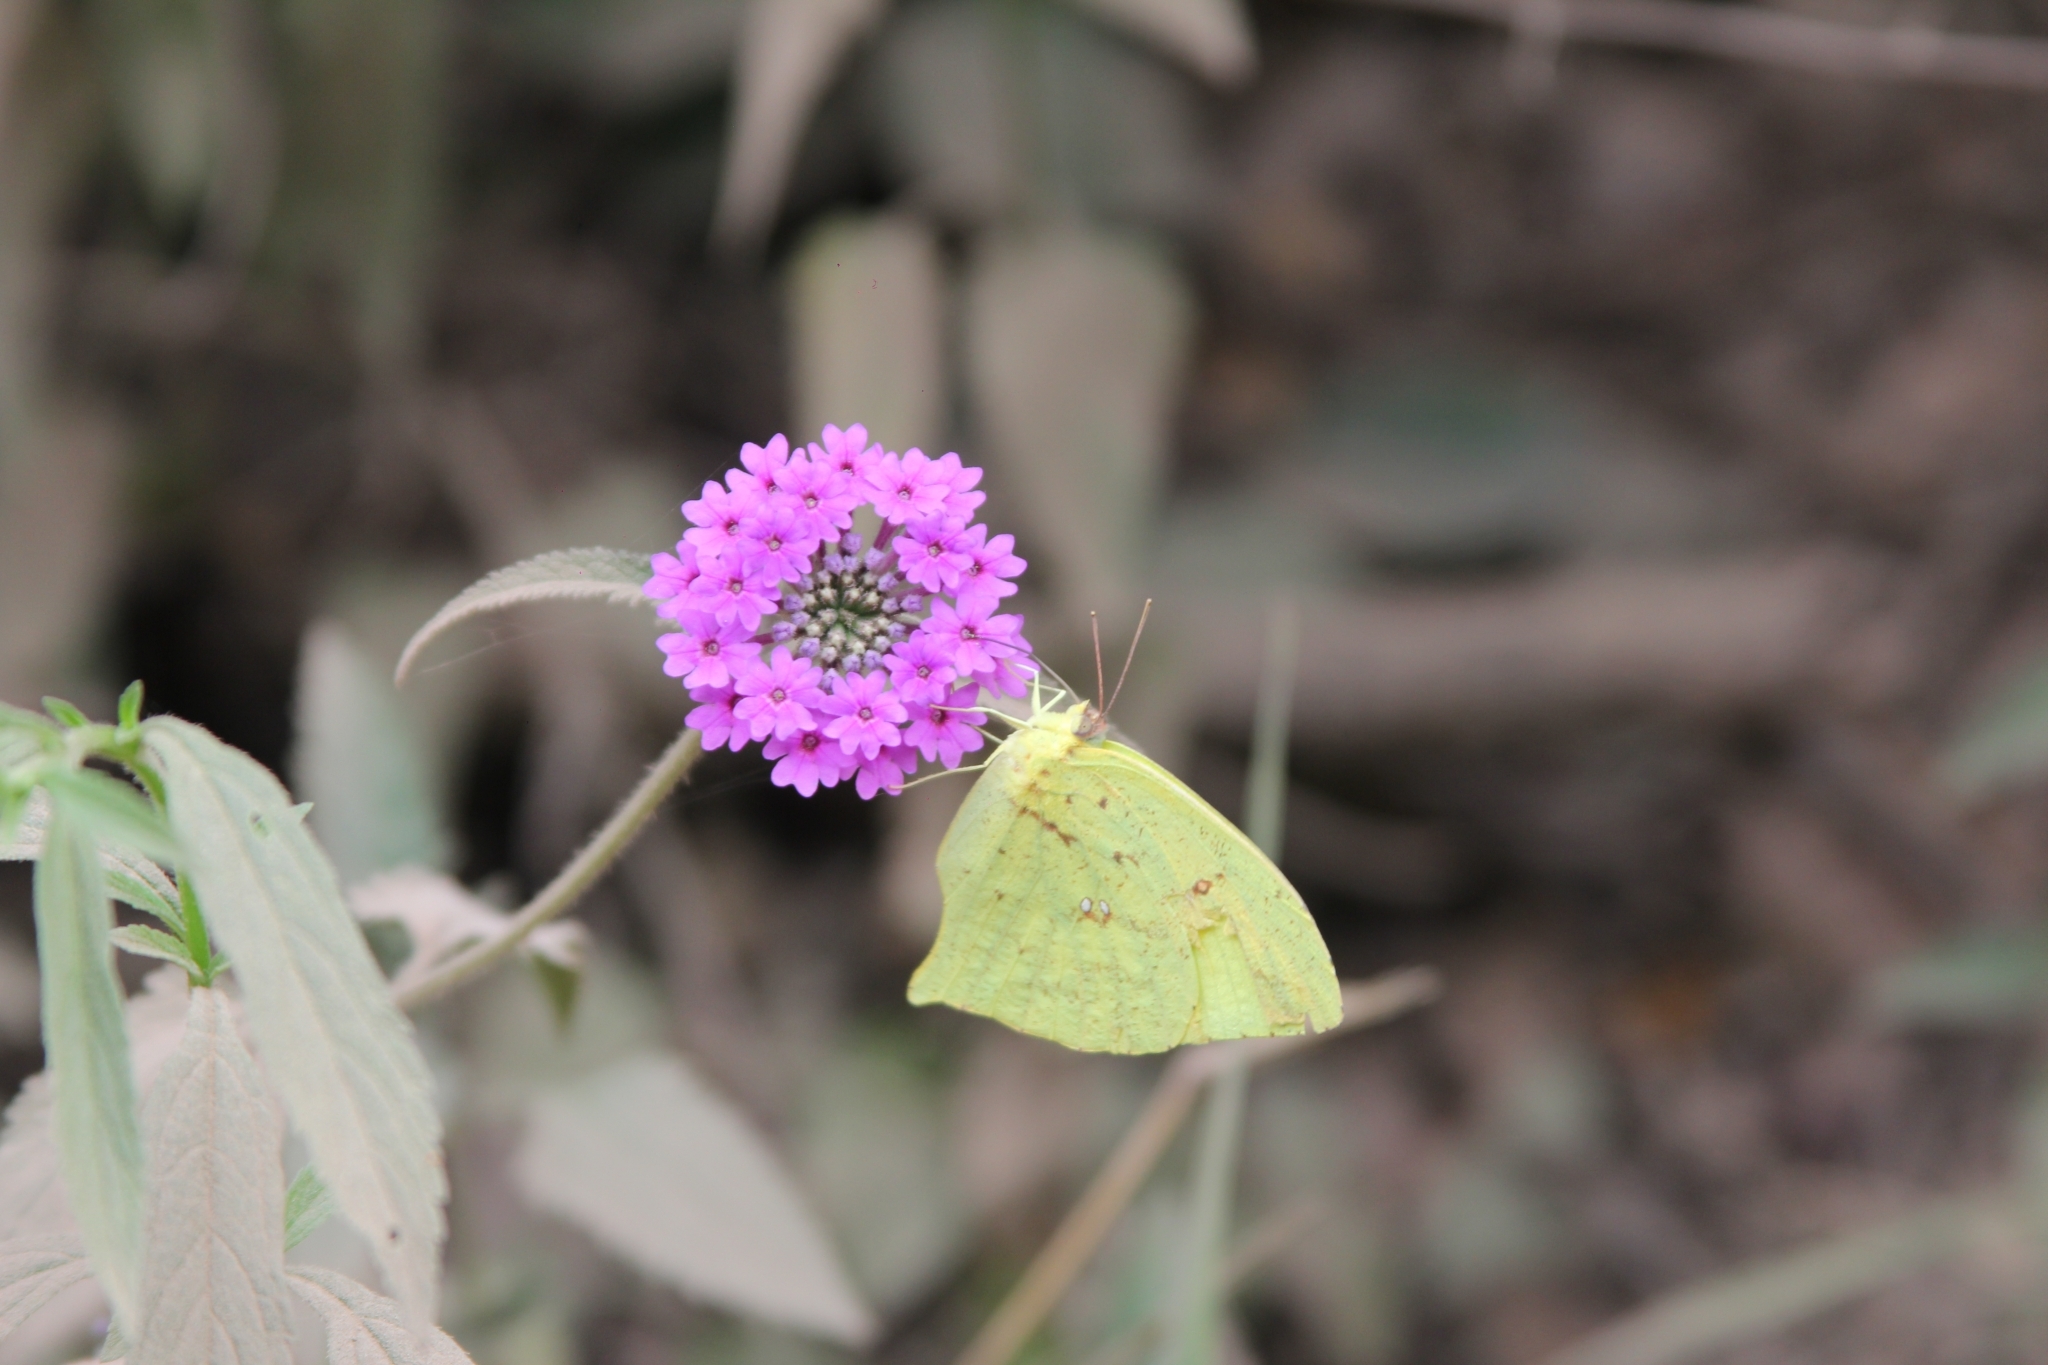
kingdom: Animalia
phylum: Arthropoda
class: Insecta
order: Lepidoptera
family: Pieridae
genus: Phoebis
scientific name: Phoebis neocypris
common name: Tailed sulphur
